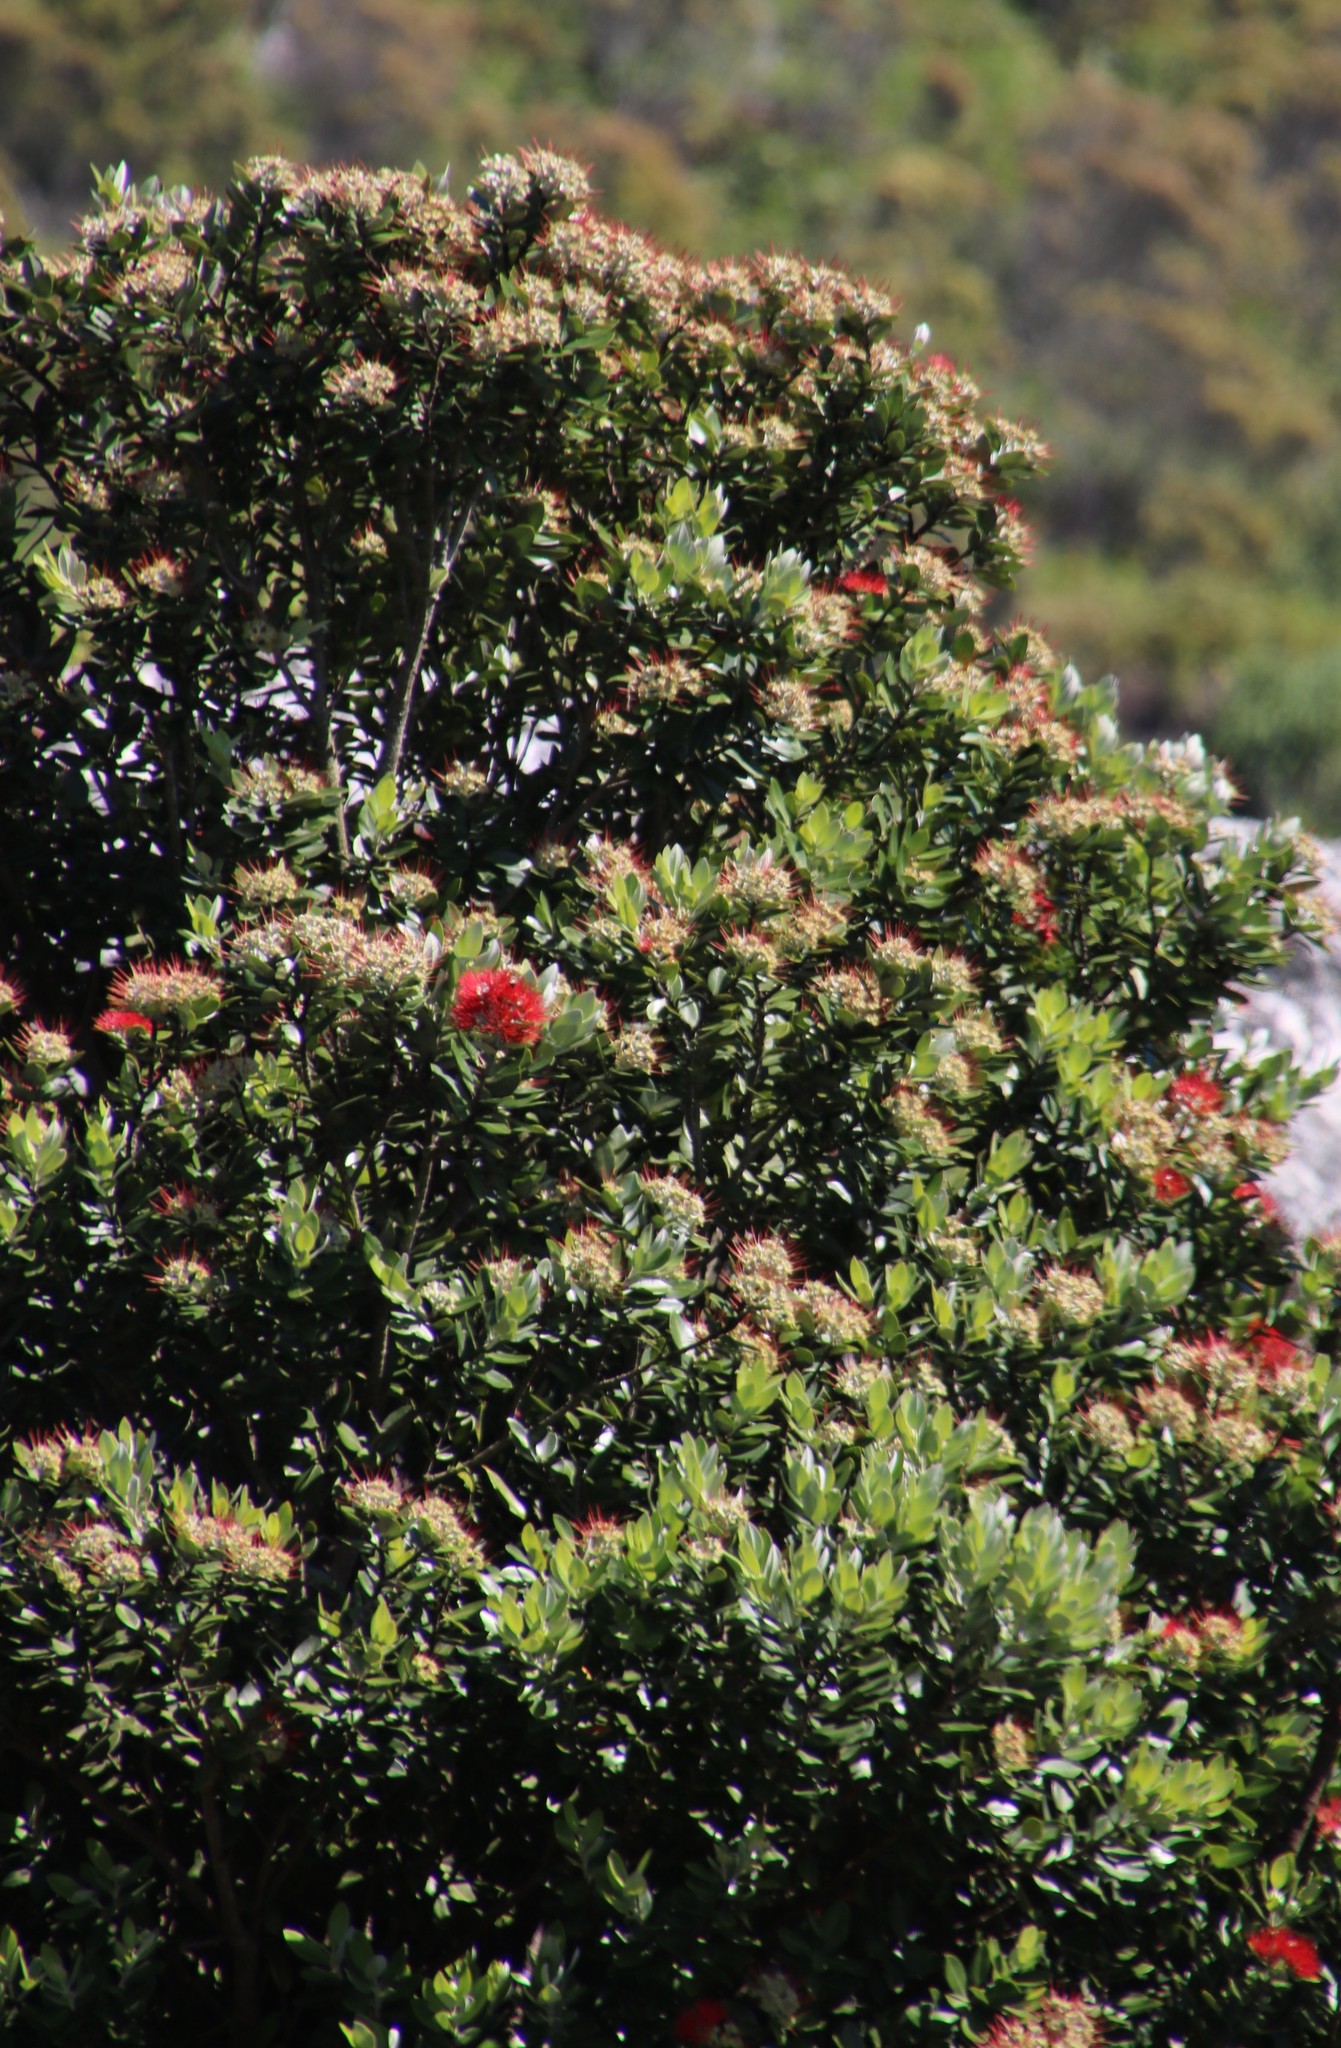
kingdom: Plantae
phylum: Tracheophyta
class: Magnoliopsida
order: Myrtales
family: Myrtaceae
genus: Metrosideros
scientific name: Metrosideros excelsa
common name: New zealand christmastree
